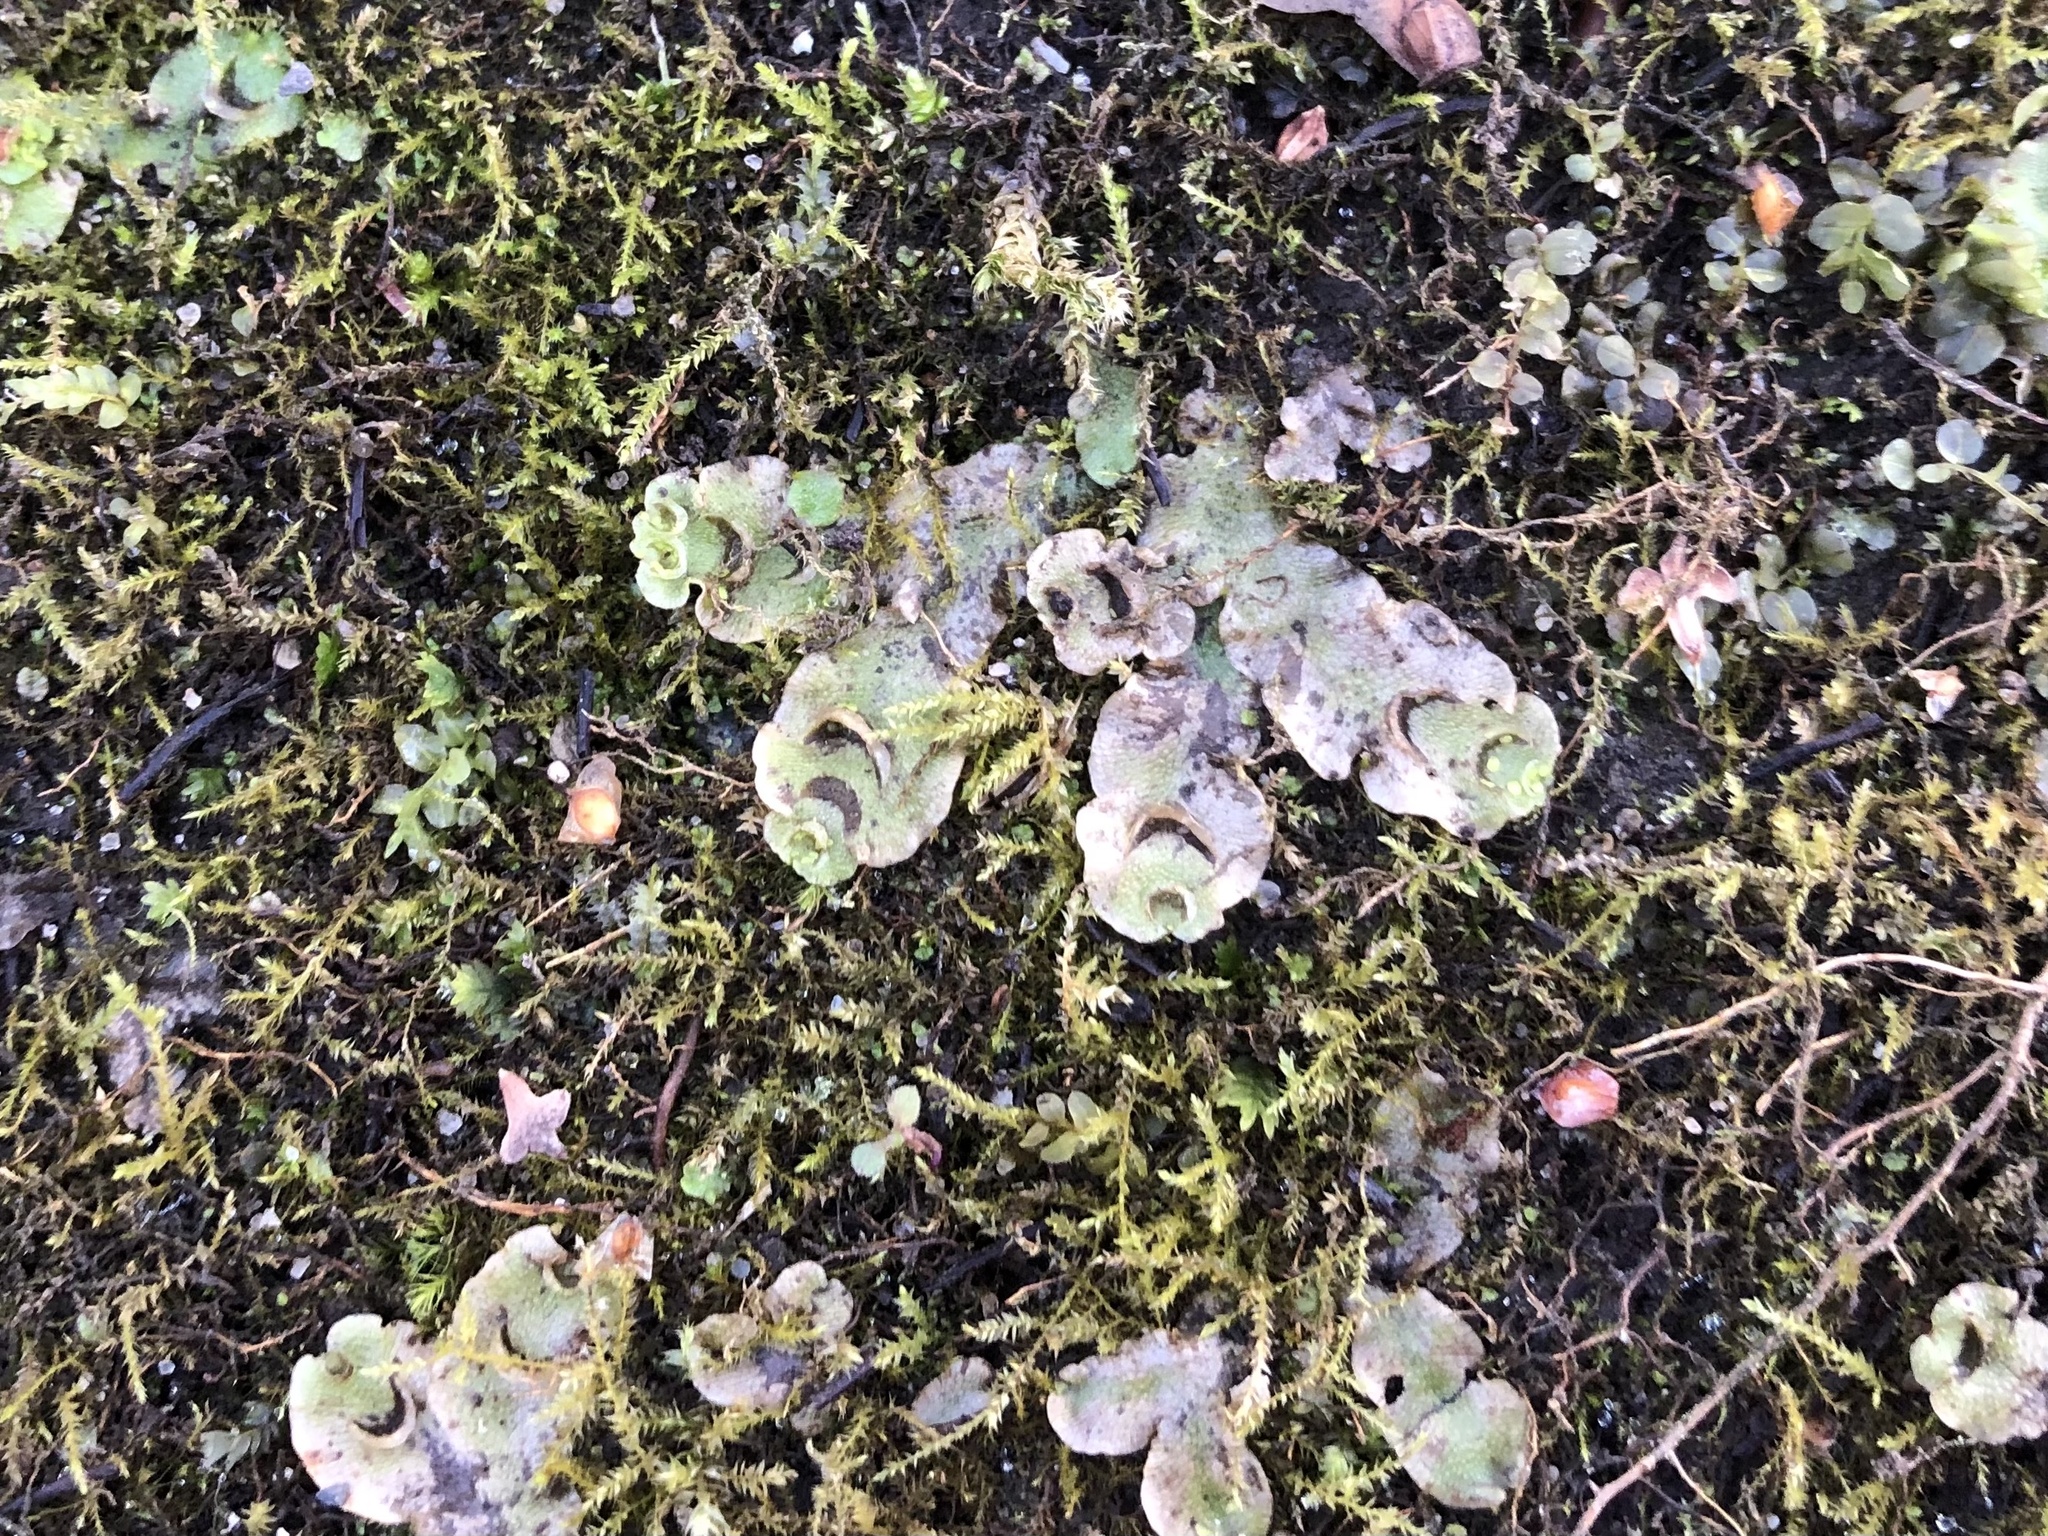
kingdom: Plantae
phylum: Marchantiophyta
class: Marchantiopsida
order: Lunulariales
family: Lunulariaceae
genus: Lunularia
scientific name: Lunularia cruciata
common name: Crescent-cup liverwort
